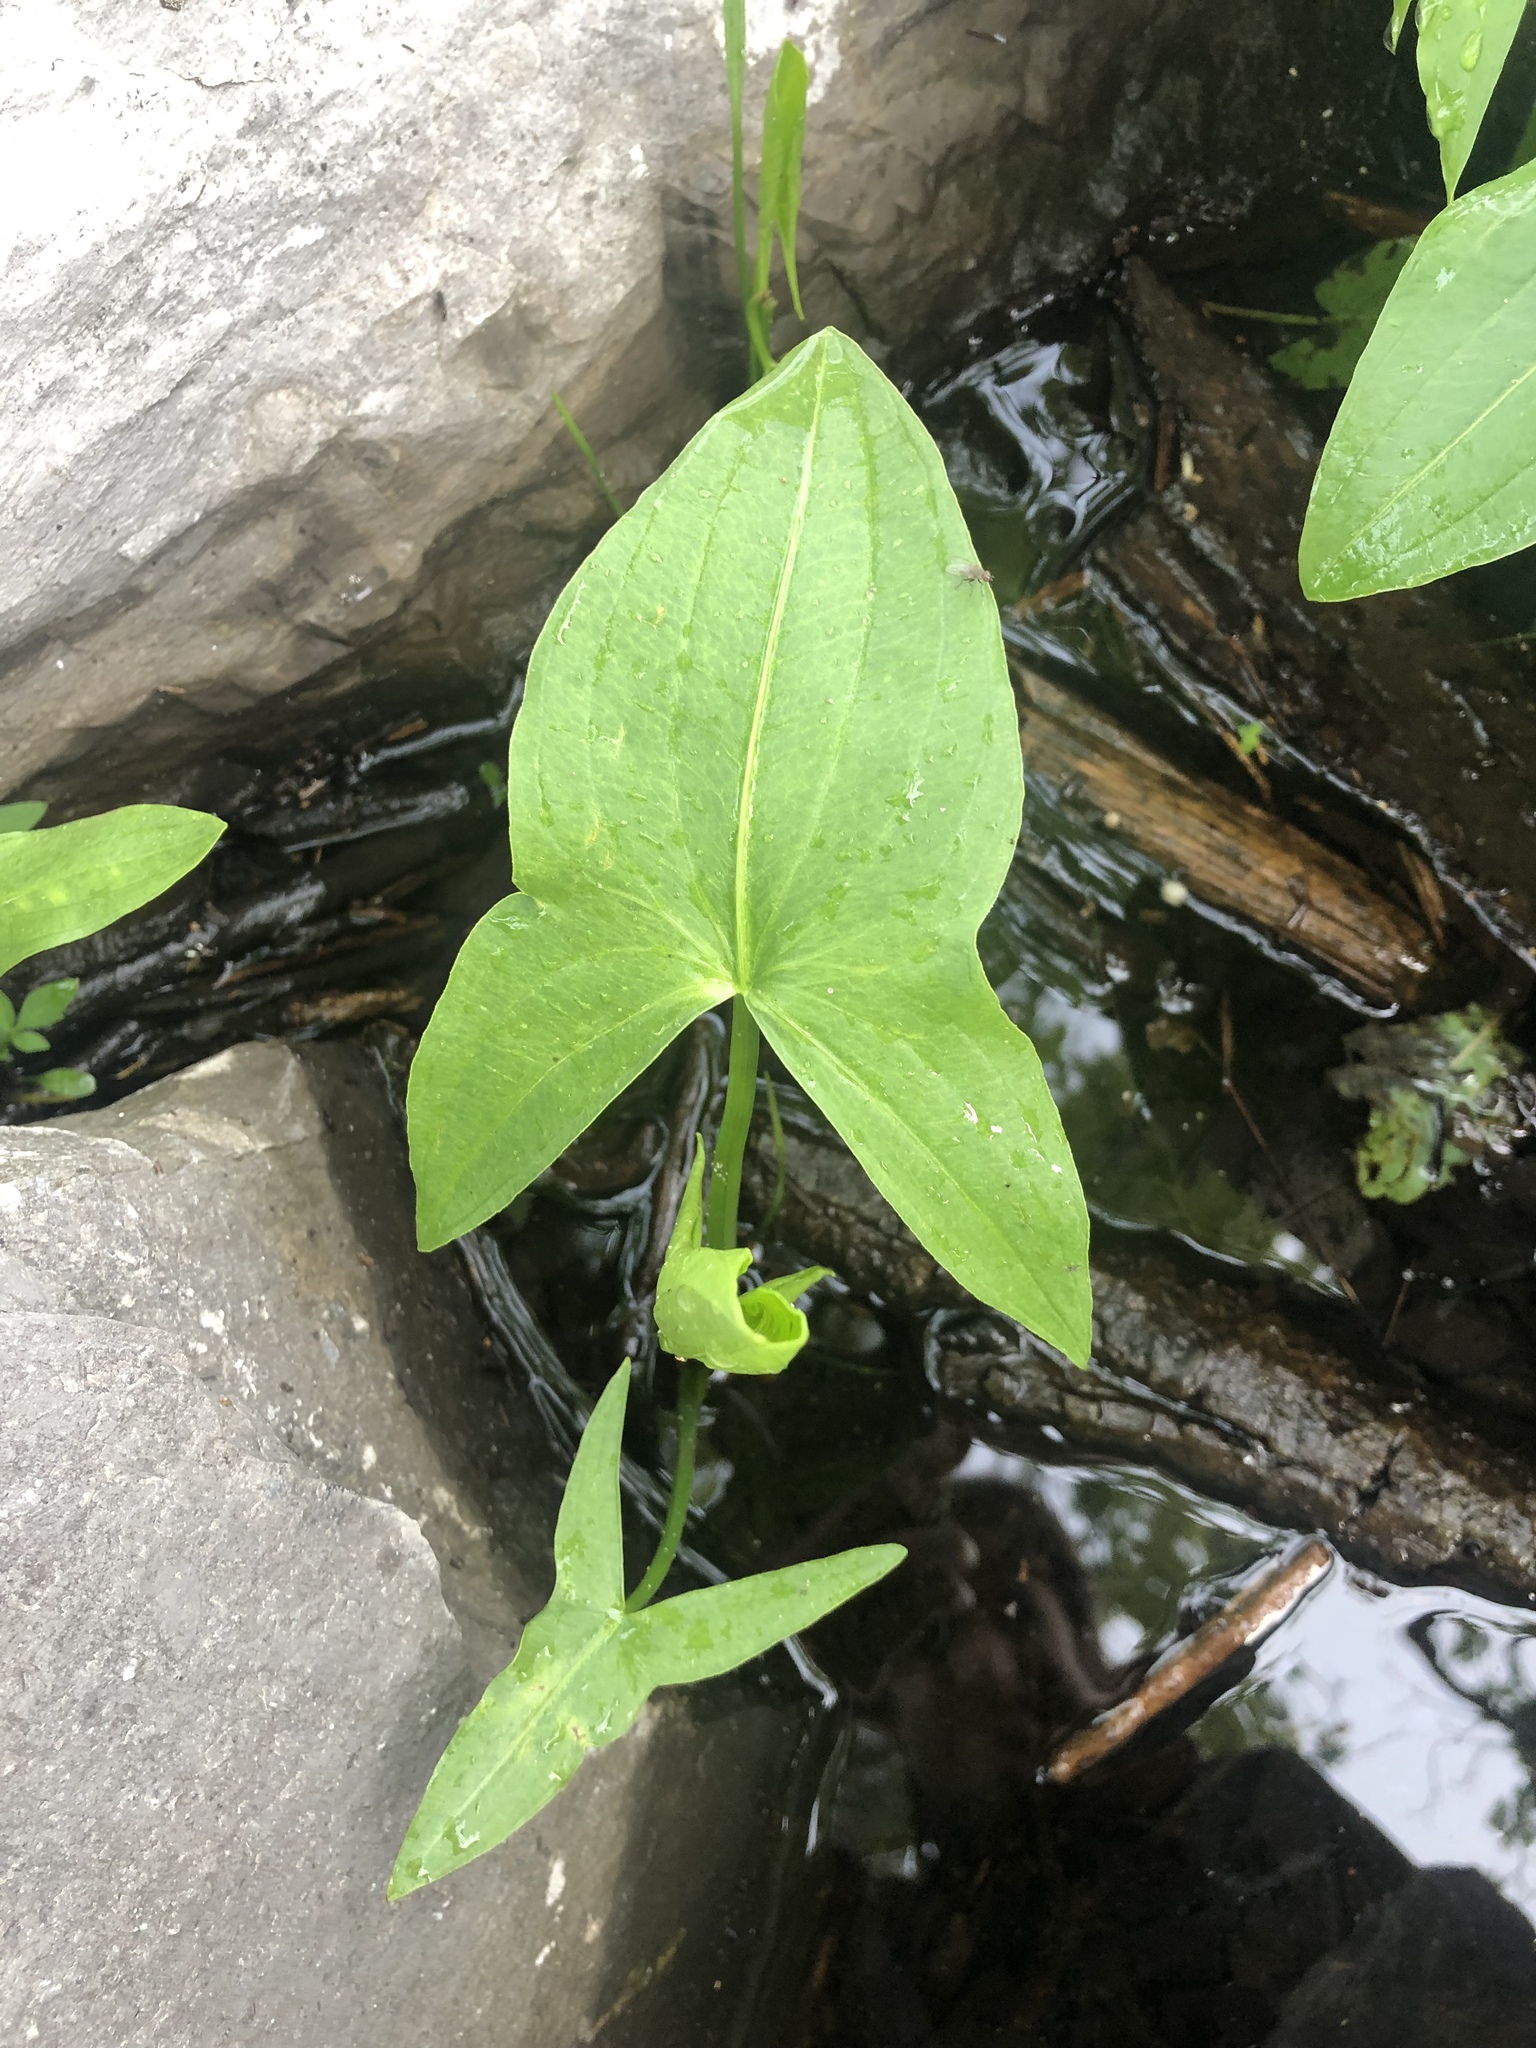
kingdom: Plantae
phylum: Tracheophyta
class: Liliopsida
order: Alismatales
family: Alismataceae
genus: Sagittaria
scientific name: Sagittaria latifolia
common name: Duck-potato
